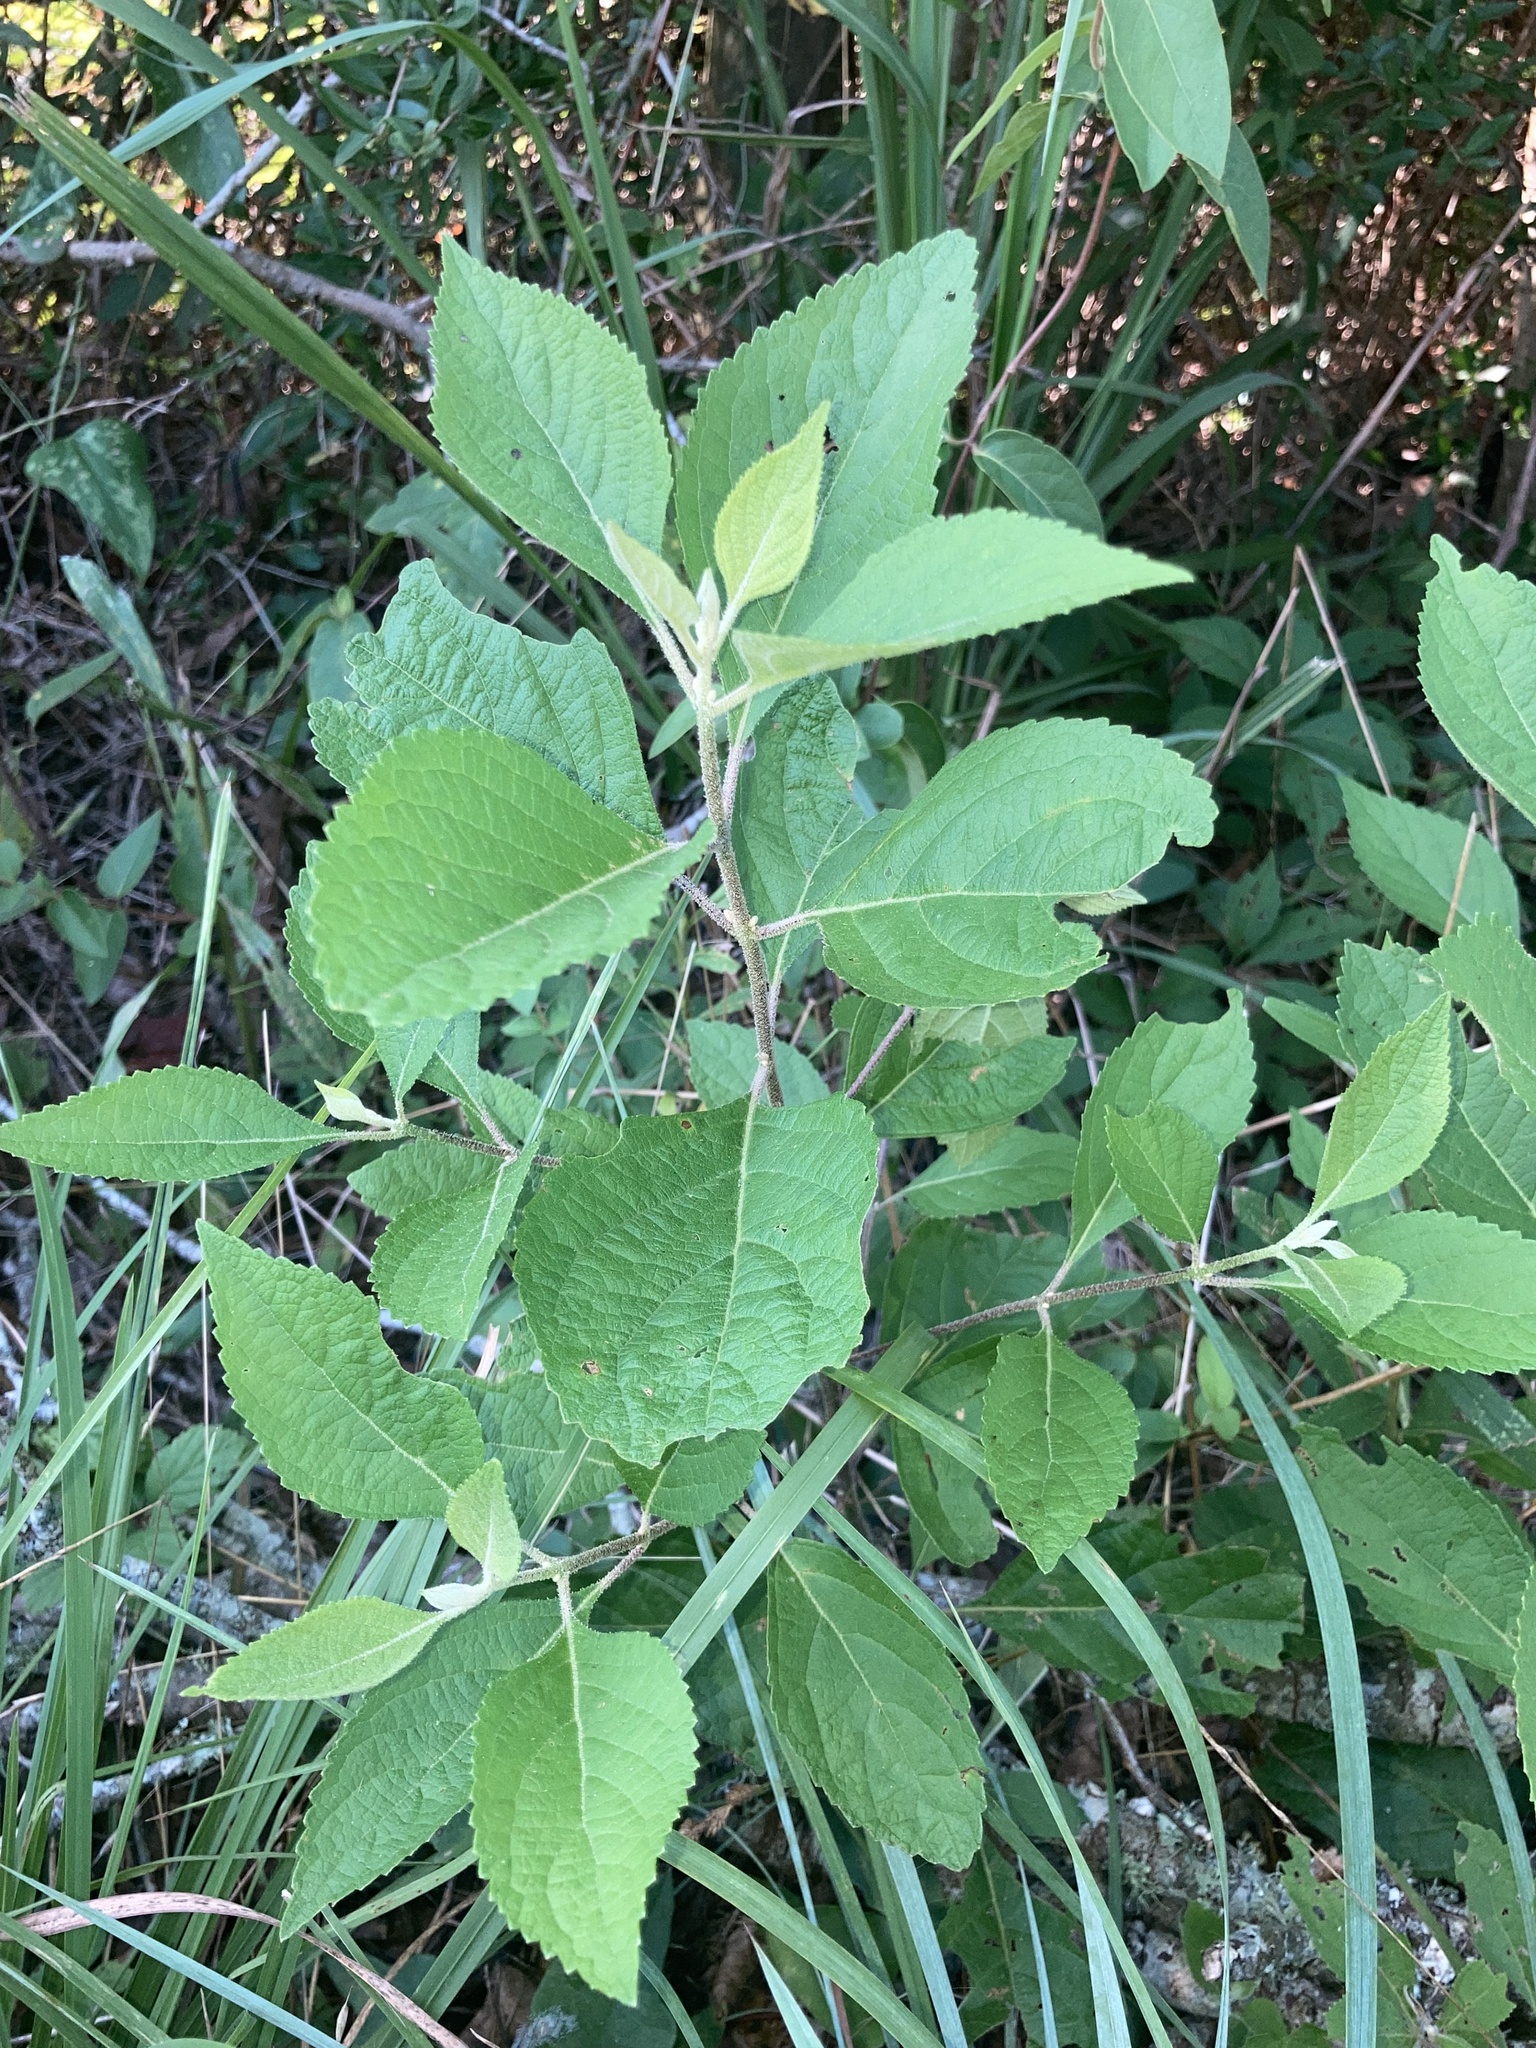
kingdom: Plantae
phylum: Tracheophyta
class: Magnoliopsida
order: Lamiales
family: Lamiaceae
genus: Callicarpa
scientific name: Callicarpa americana
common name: American beautyberry
